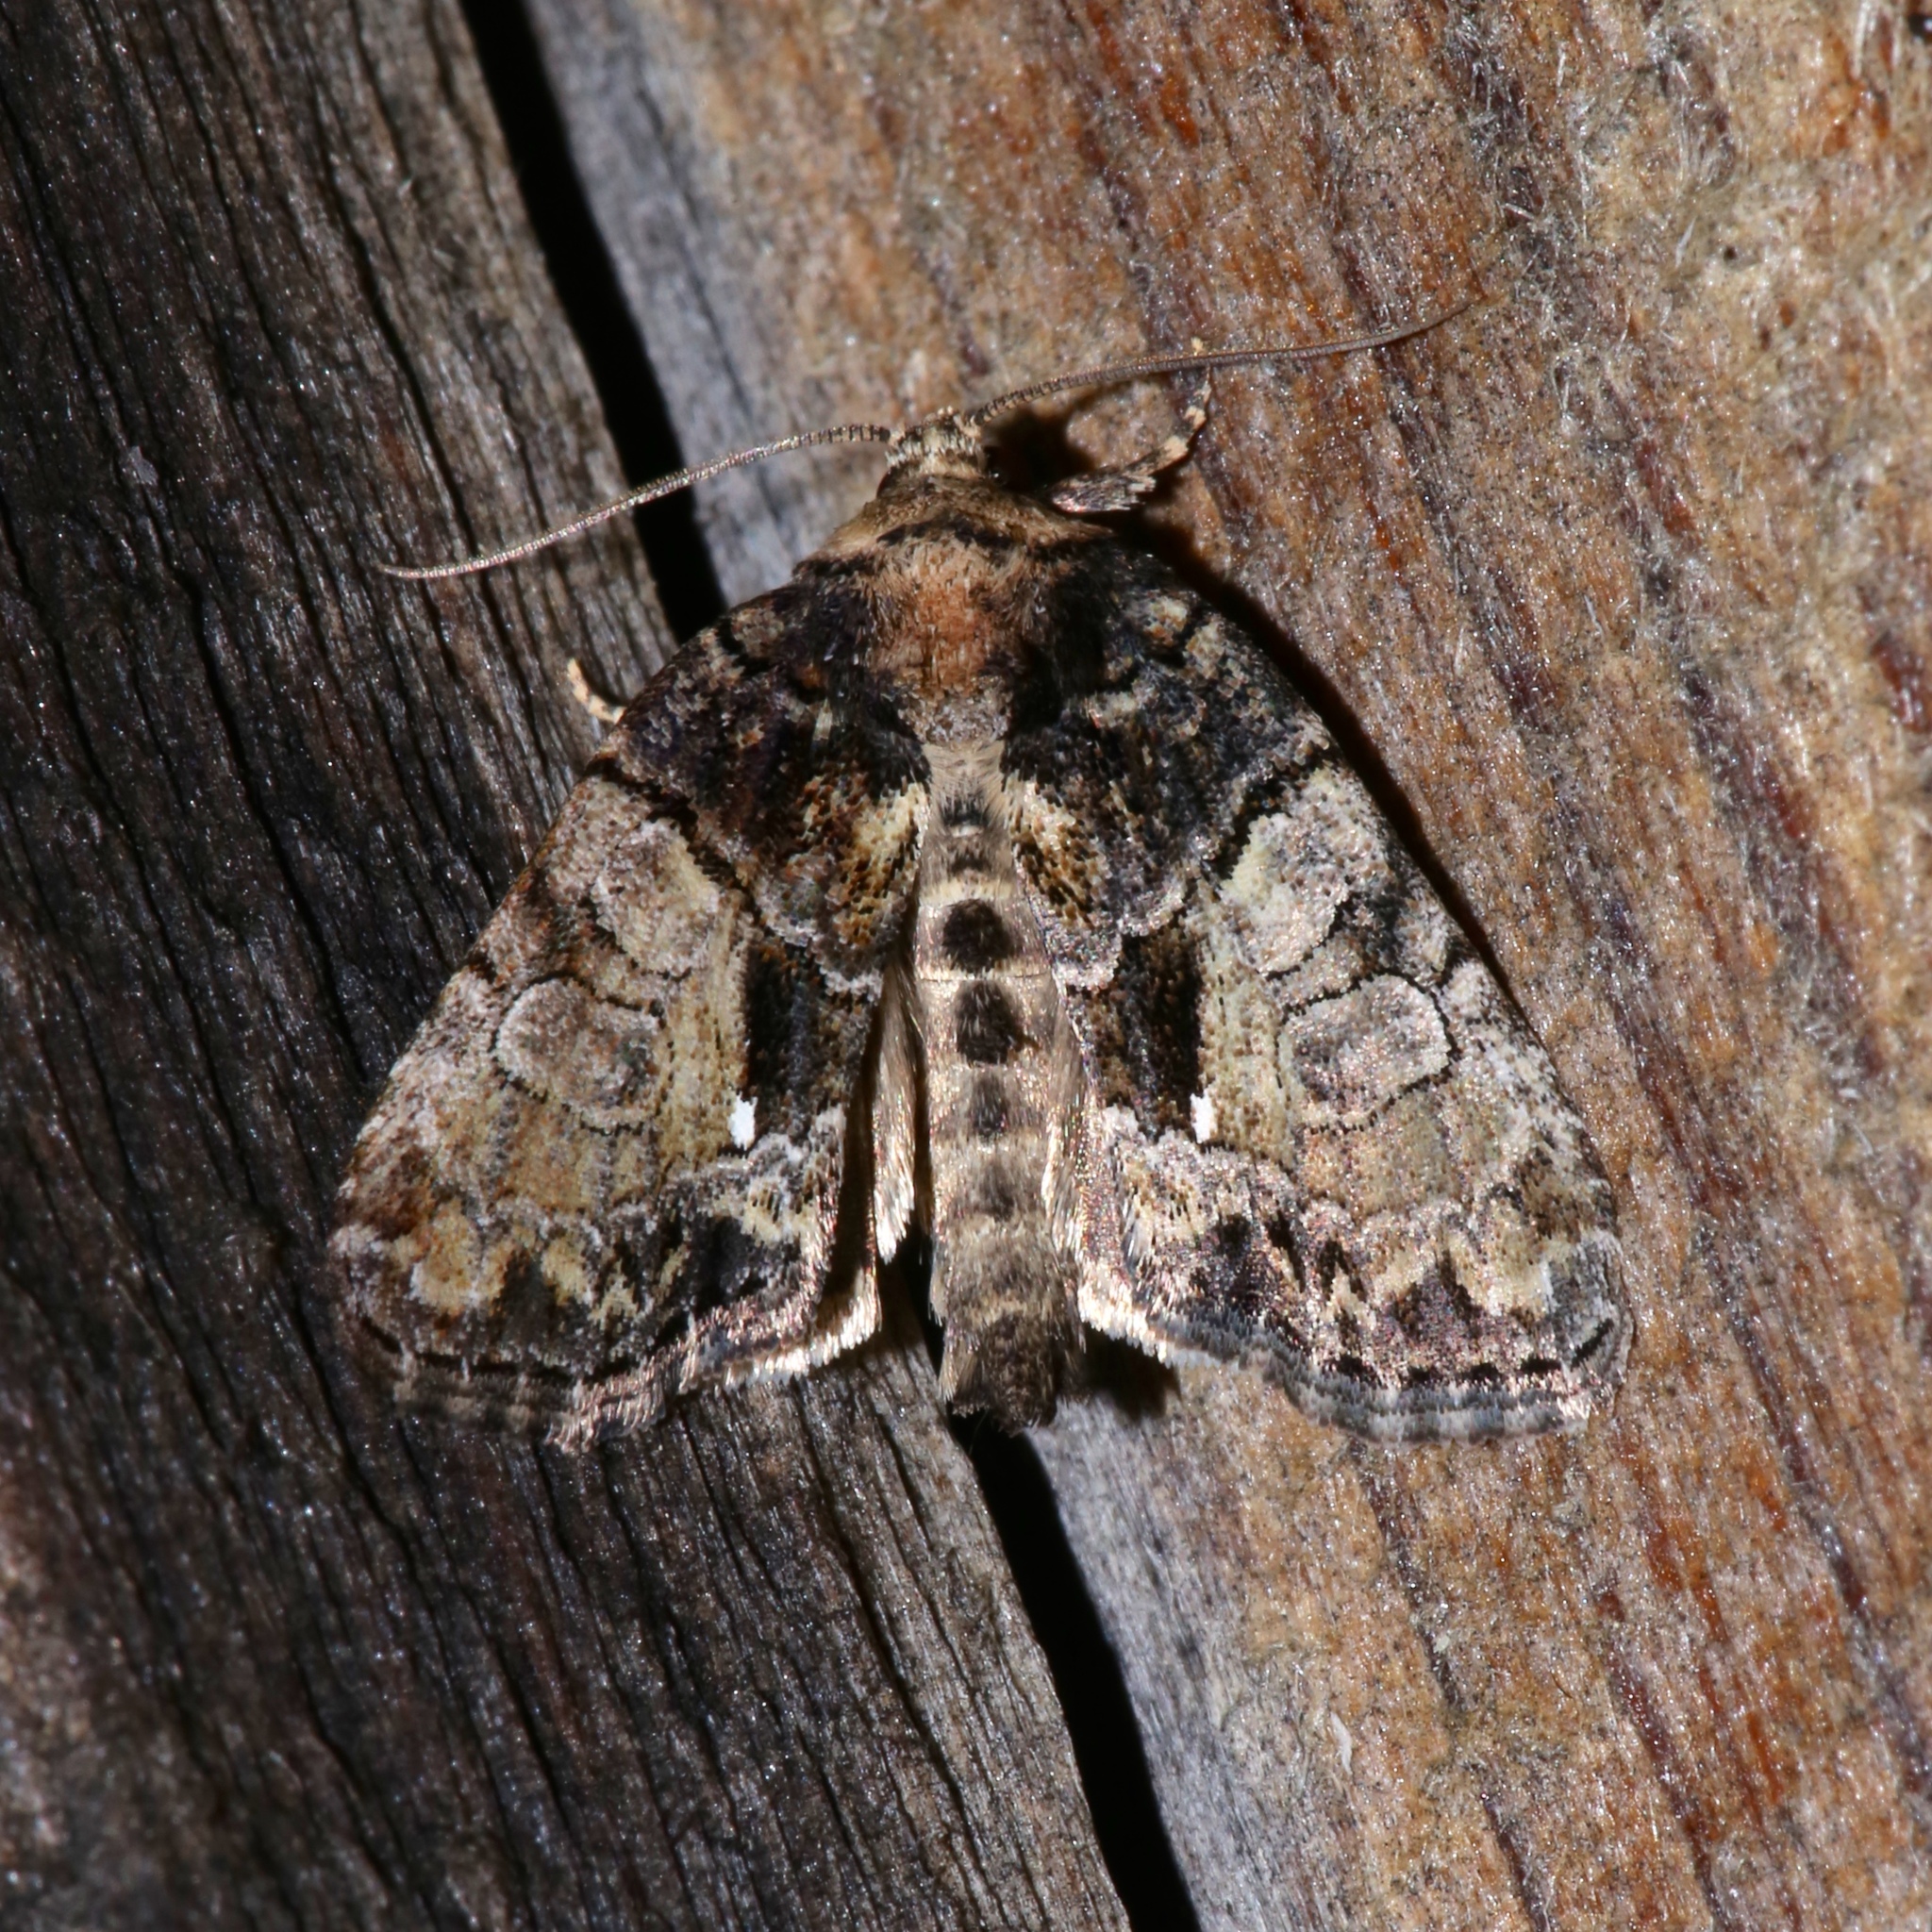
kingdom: Animalia
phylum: Arthropoda
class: Insecta
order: Lepidoptera
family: Noctuidae
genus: Chytonix
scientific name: Chytonix palliatricula
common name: Cloaked marvel
